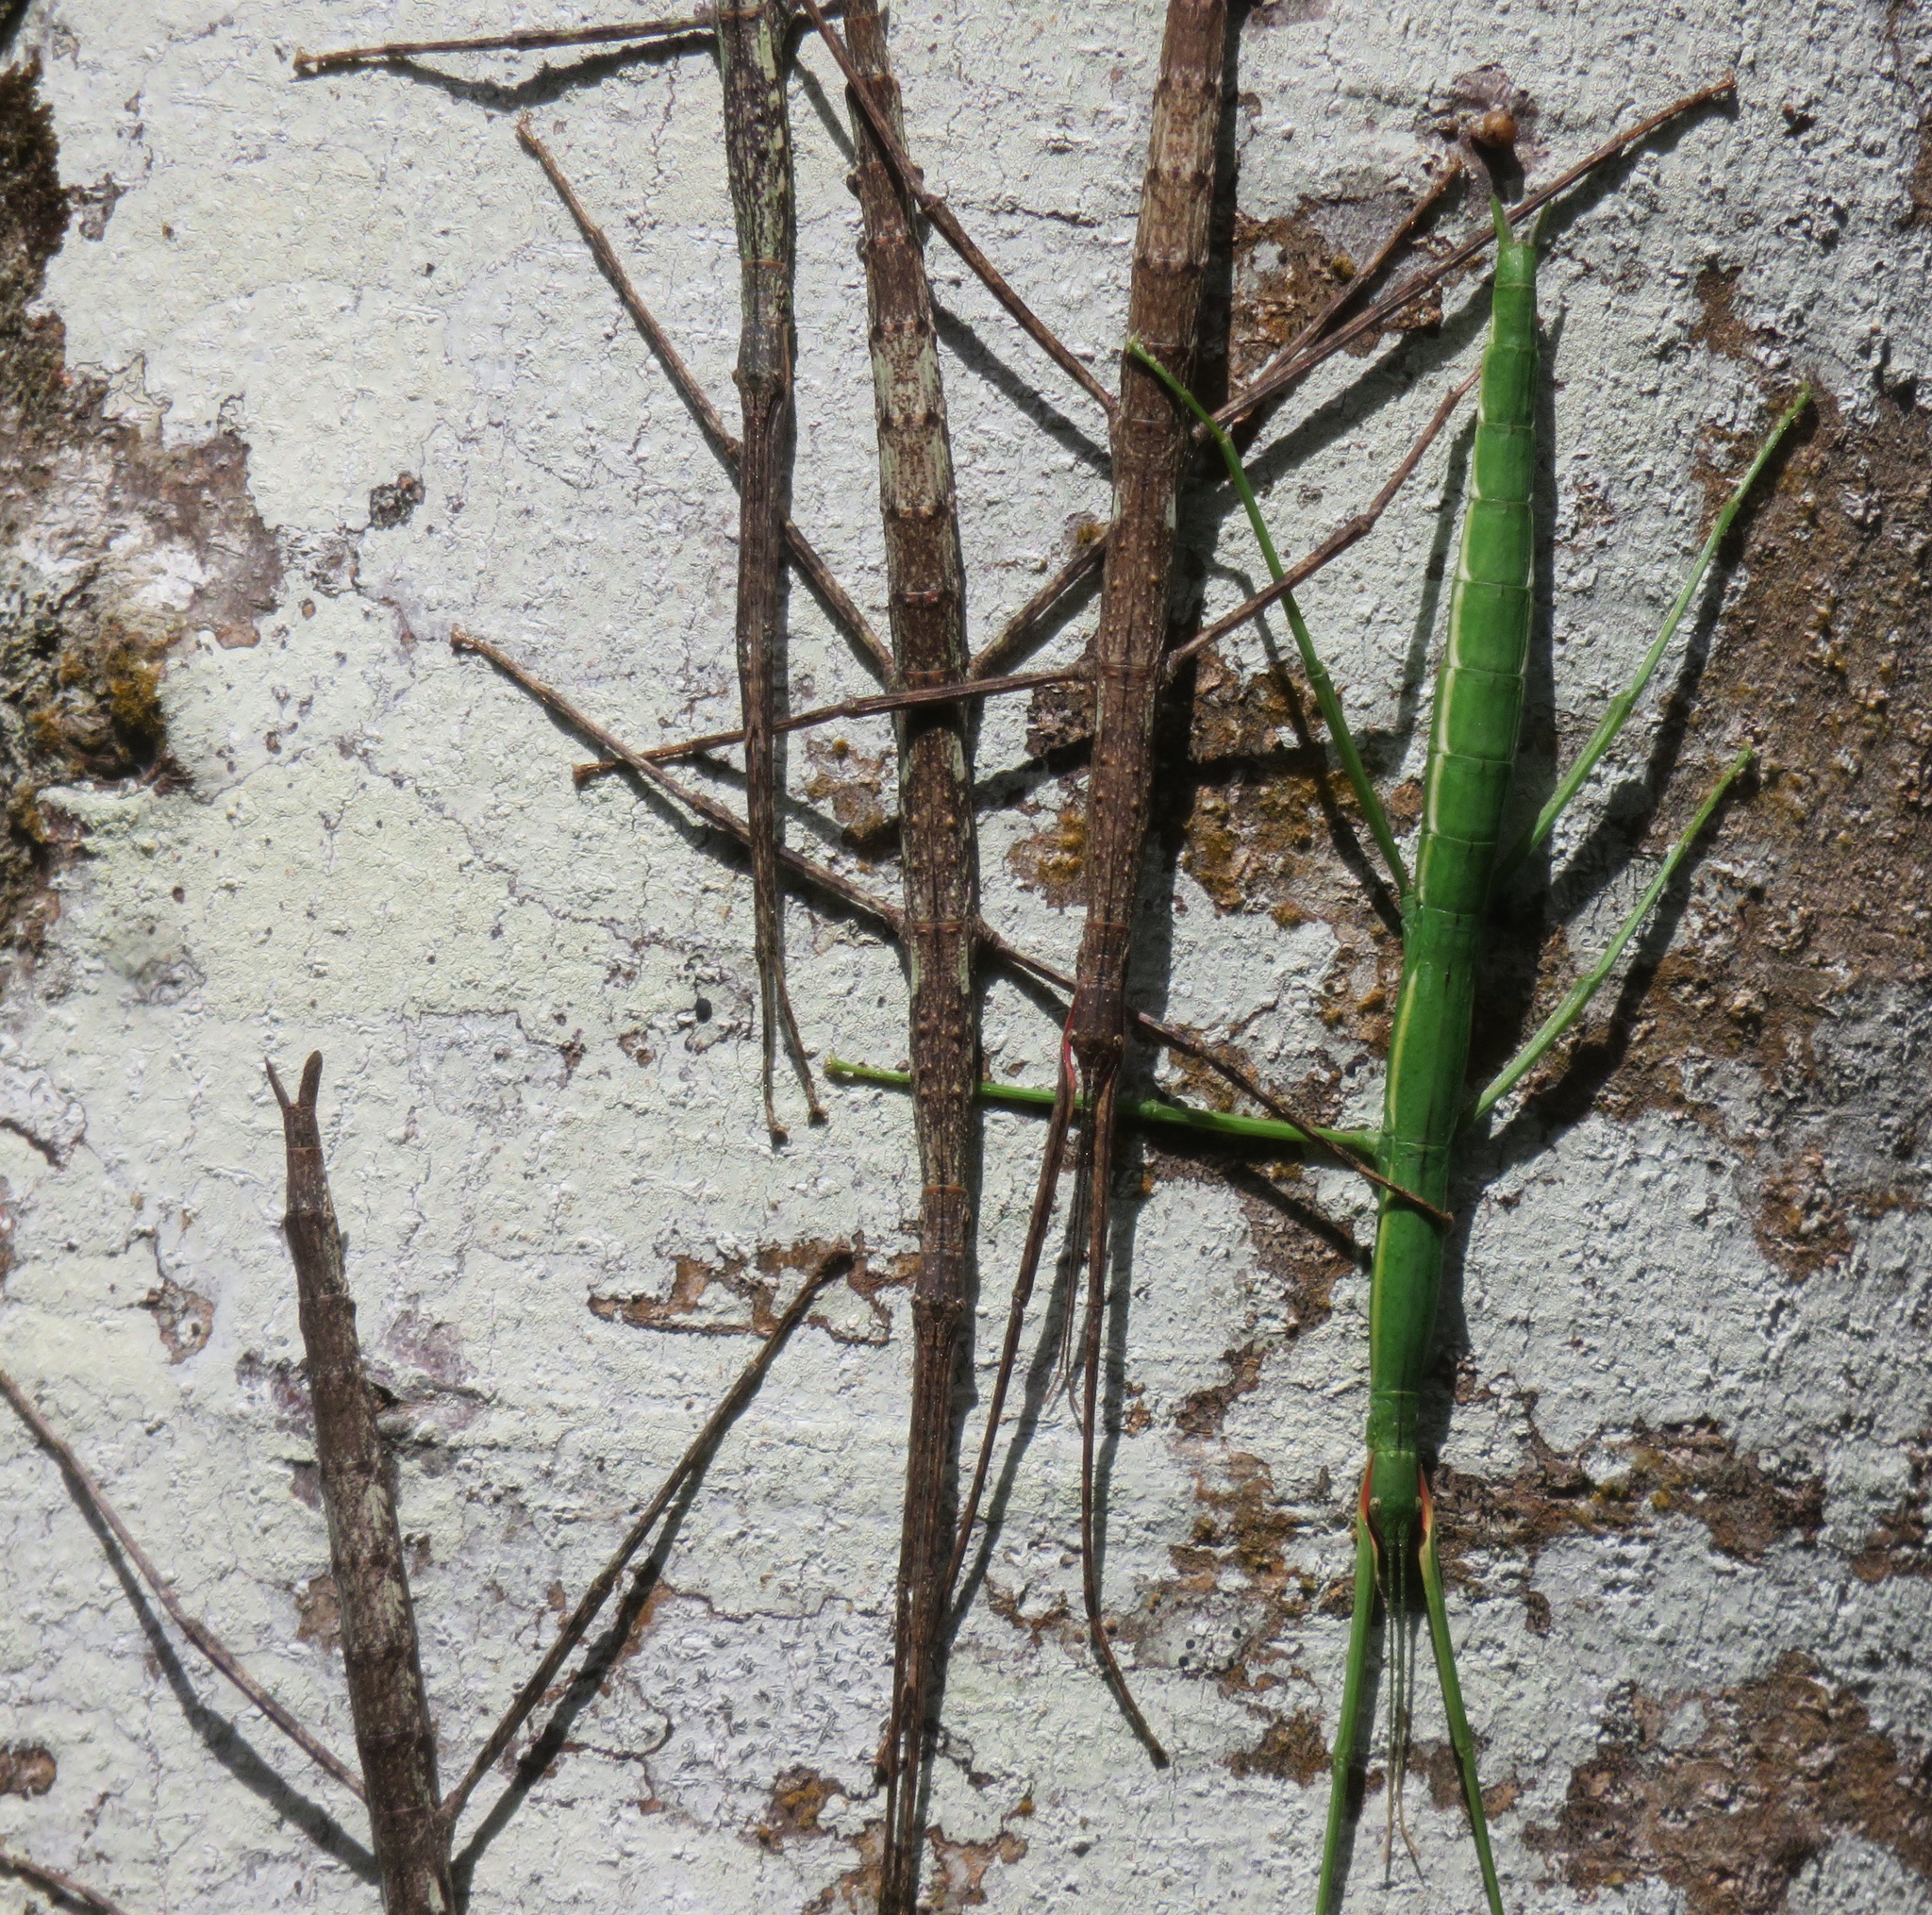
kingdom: Animalia
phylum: Arthropoda
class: Insecta
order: Phasmida
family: Phasmatidae
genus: Clitarchus
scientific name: Clitarchus hookeri
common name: Smooth stick insect
